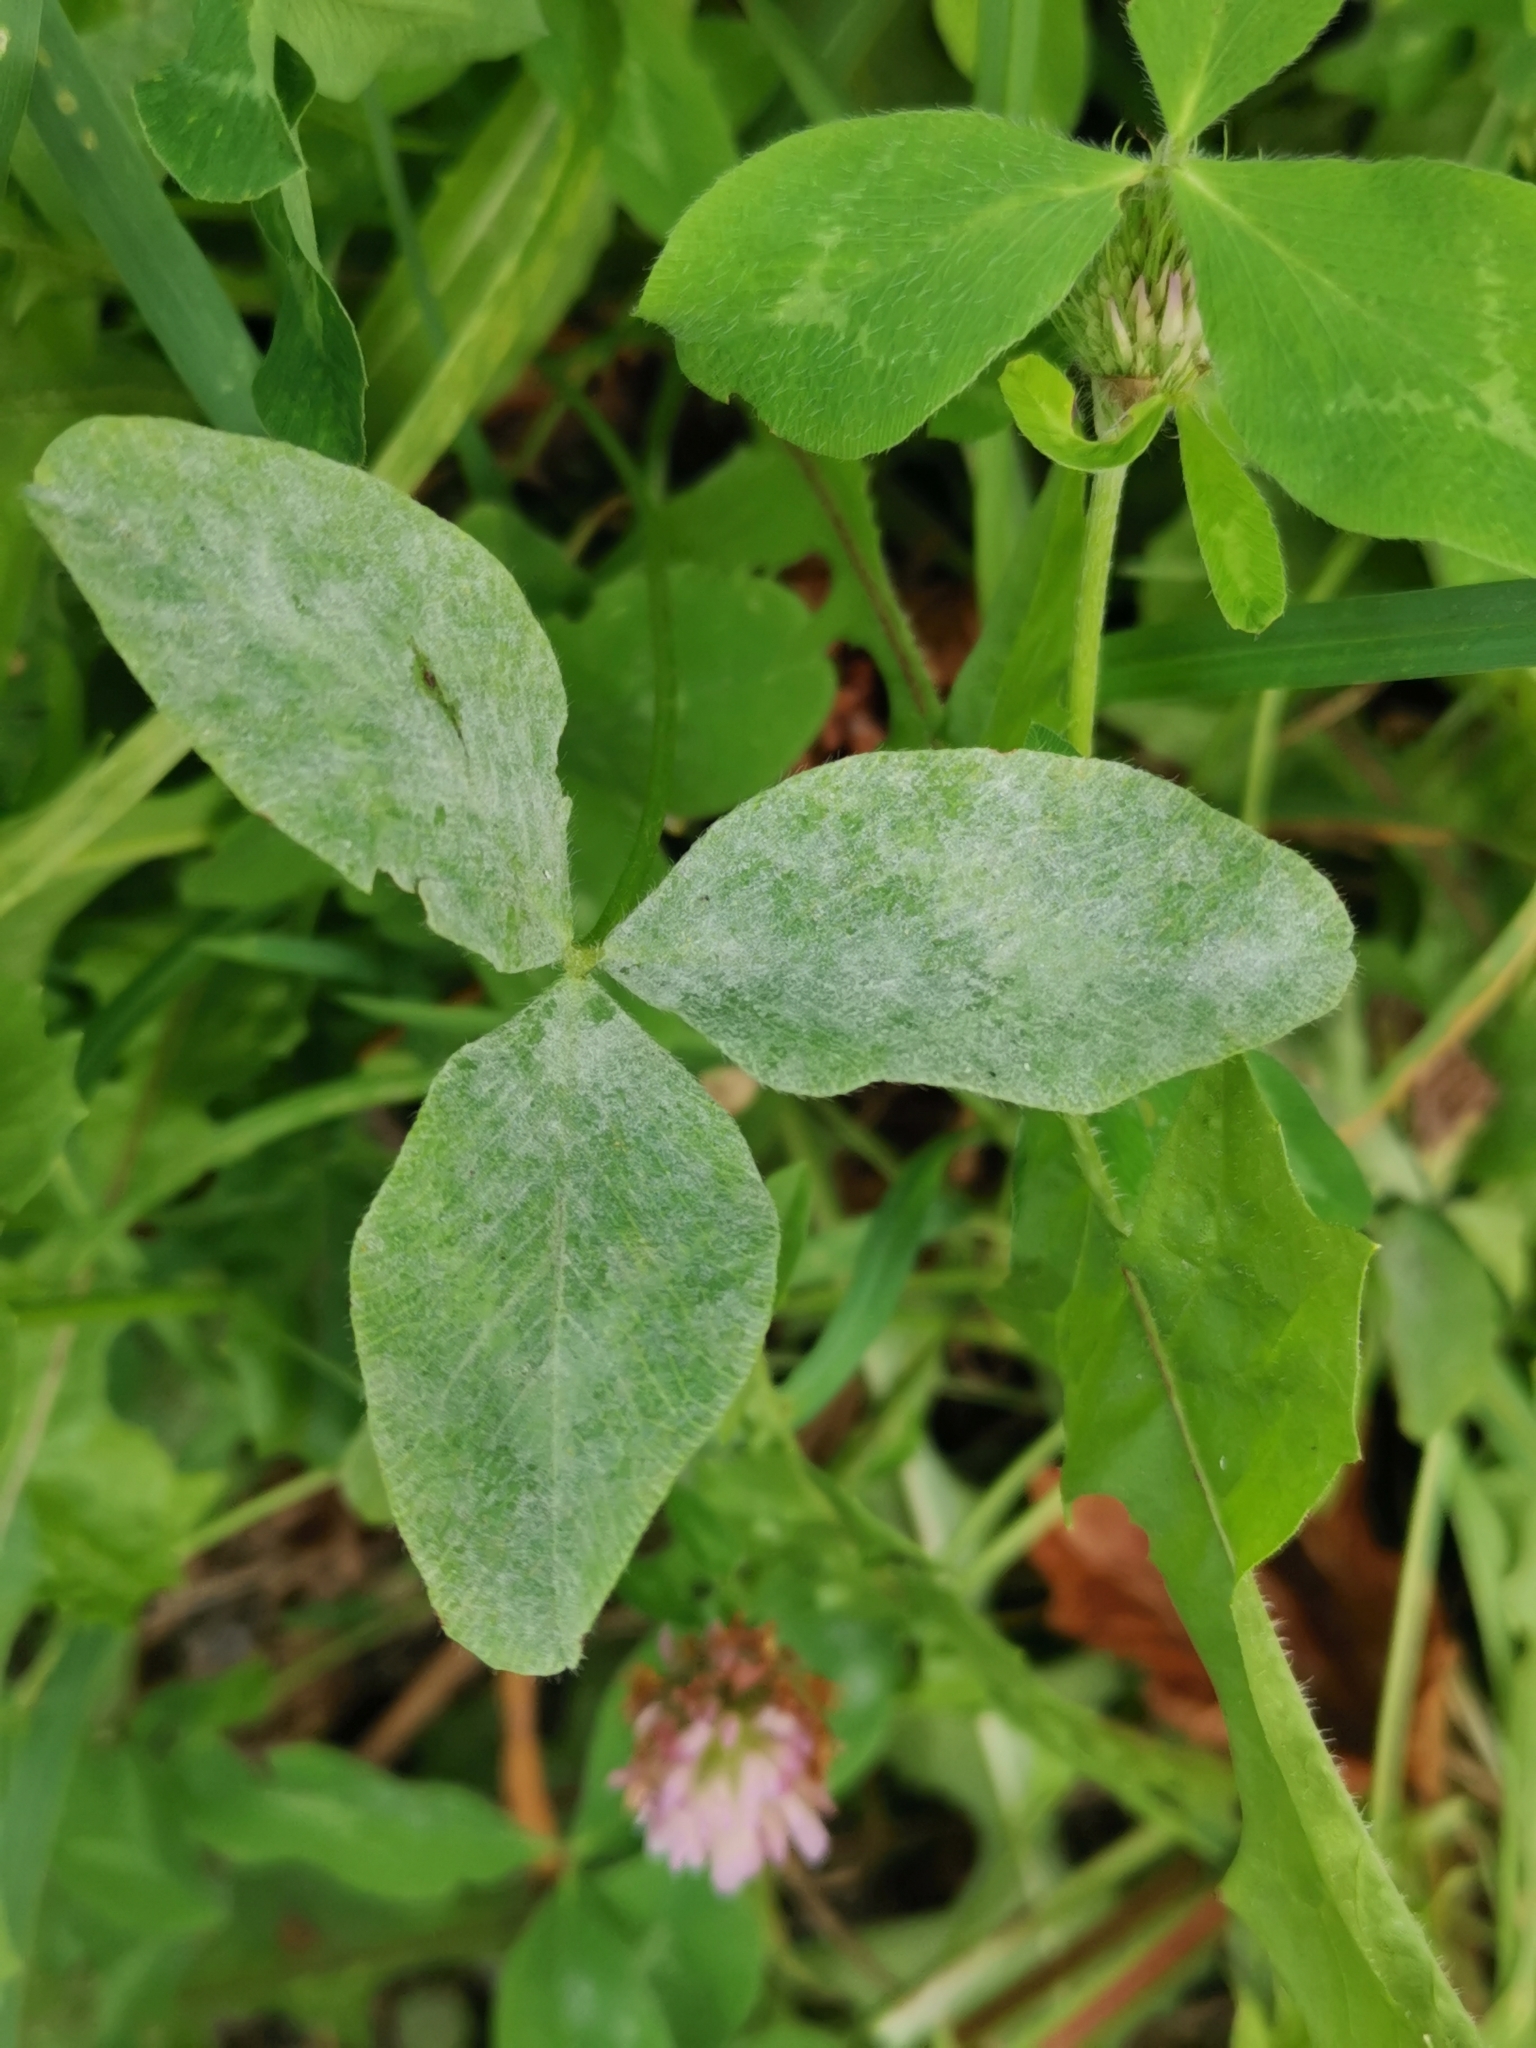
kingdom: Fungi
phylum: Ascomycota
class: Leotiomycetes
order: Helotiales
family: Erysiphaceae
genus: Erysiphe
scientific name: Erysiphe trifoliorum
